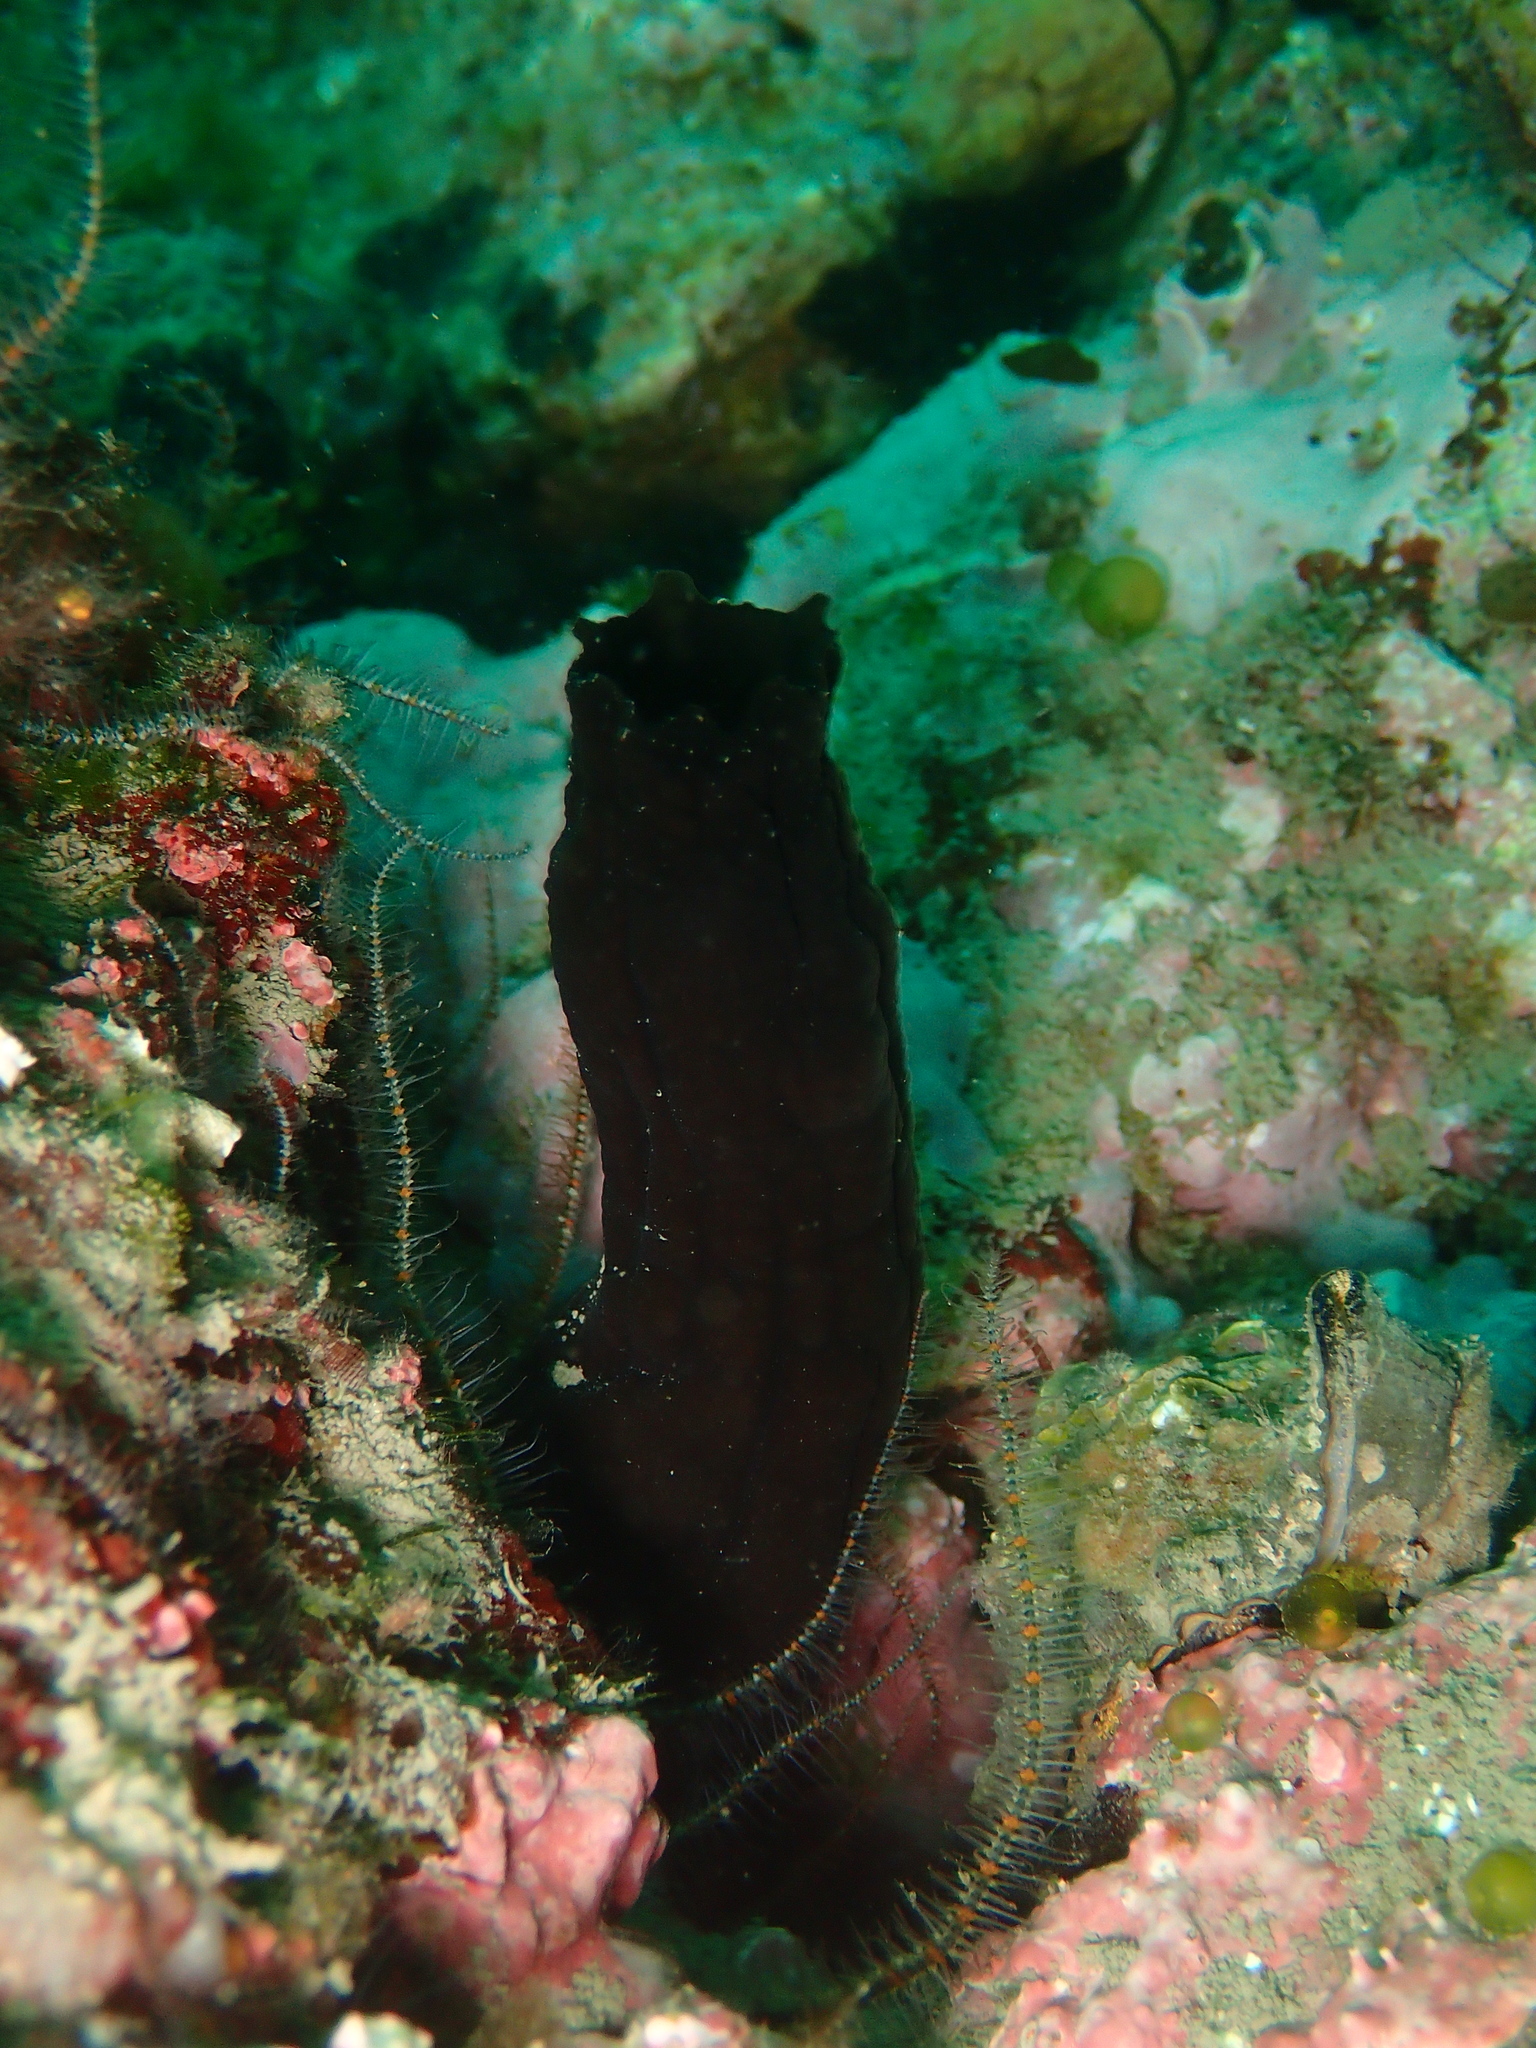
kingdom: Animalia
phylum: Chordata
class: Ascidiacea
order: Phlebobranchia
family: Ascidiidae
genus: Phallusia
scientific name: Phallusia fumigata
